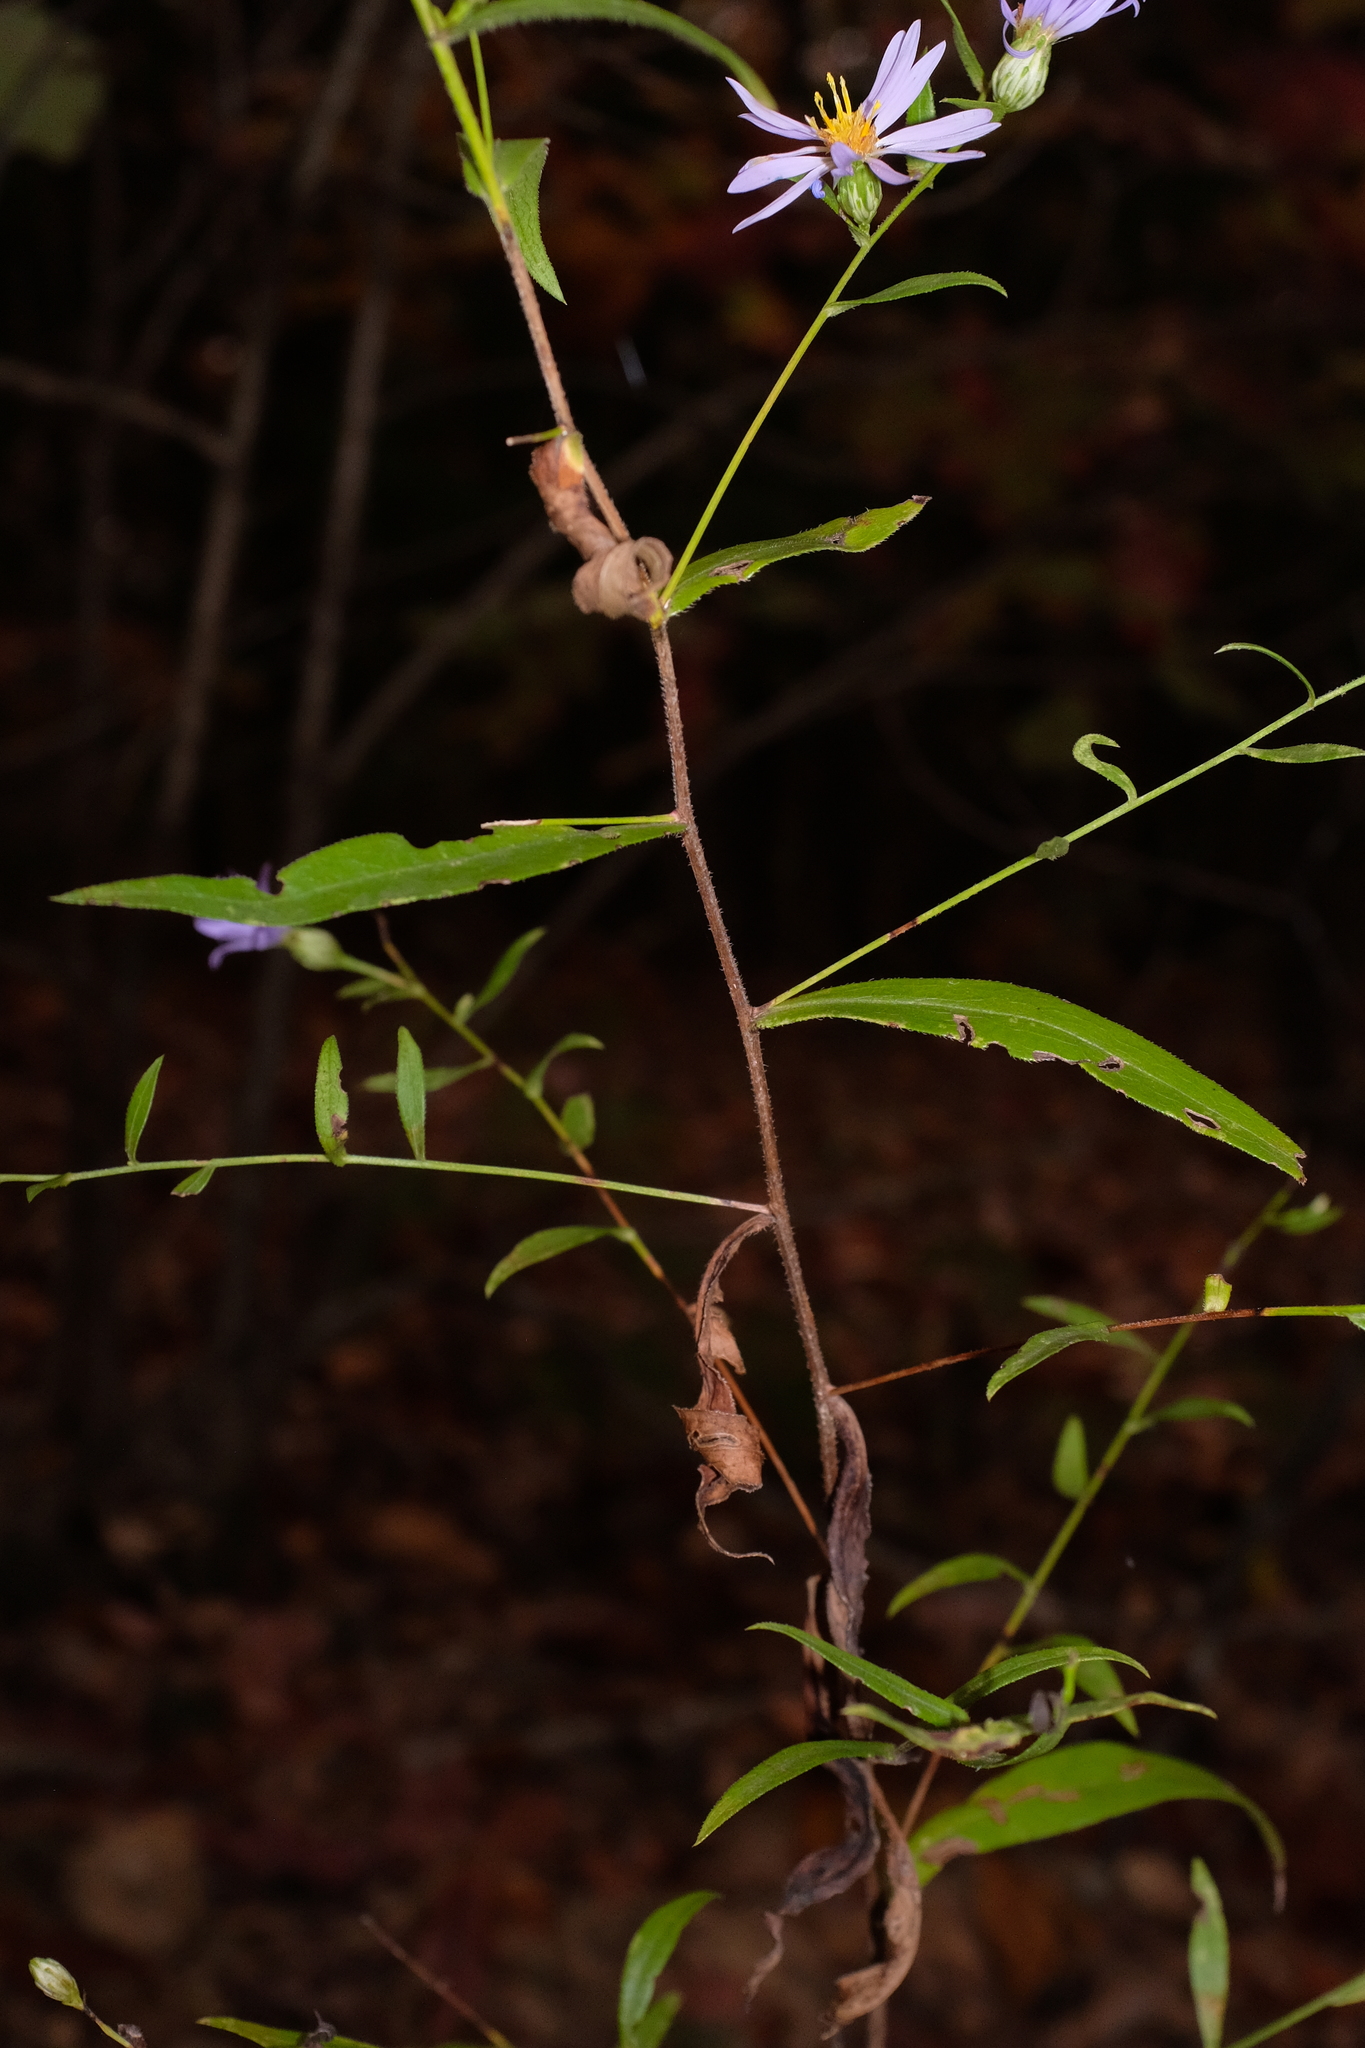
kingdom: Plantae
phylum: Tracheophyta
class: Magnoliopsida
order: Asterales
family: Asteraceae
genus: Symphyotrichum
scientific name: Symphyotrichum turbinellum
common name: Prairie aster
